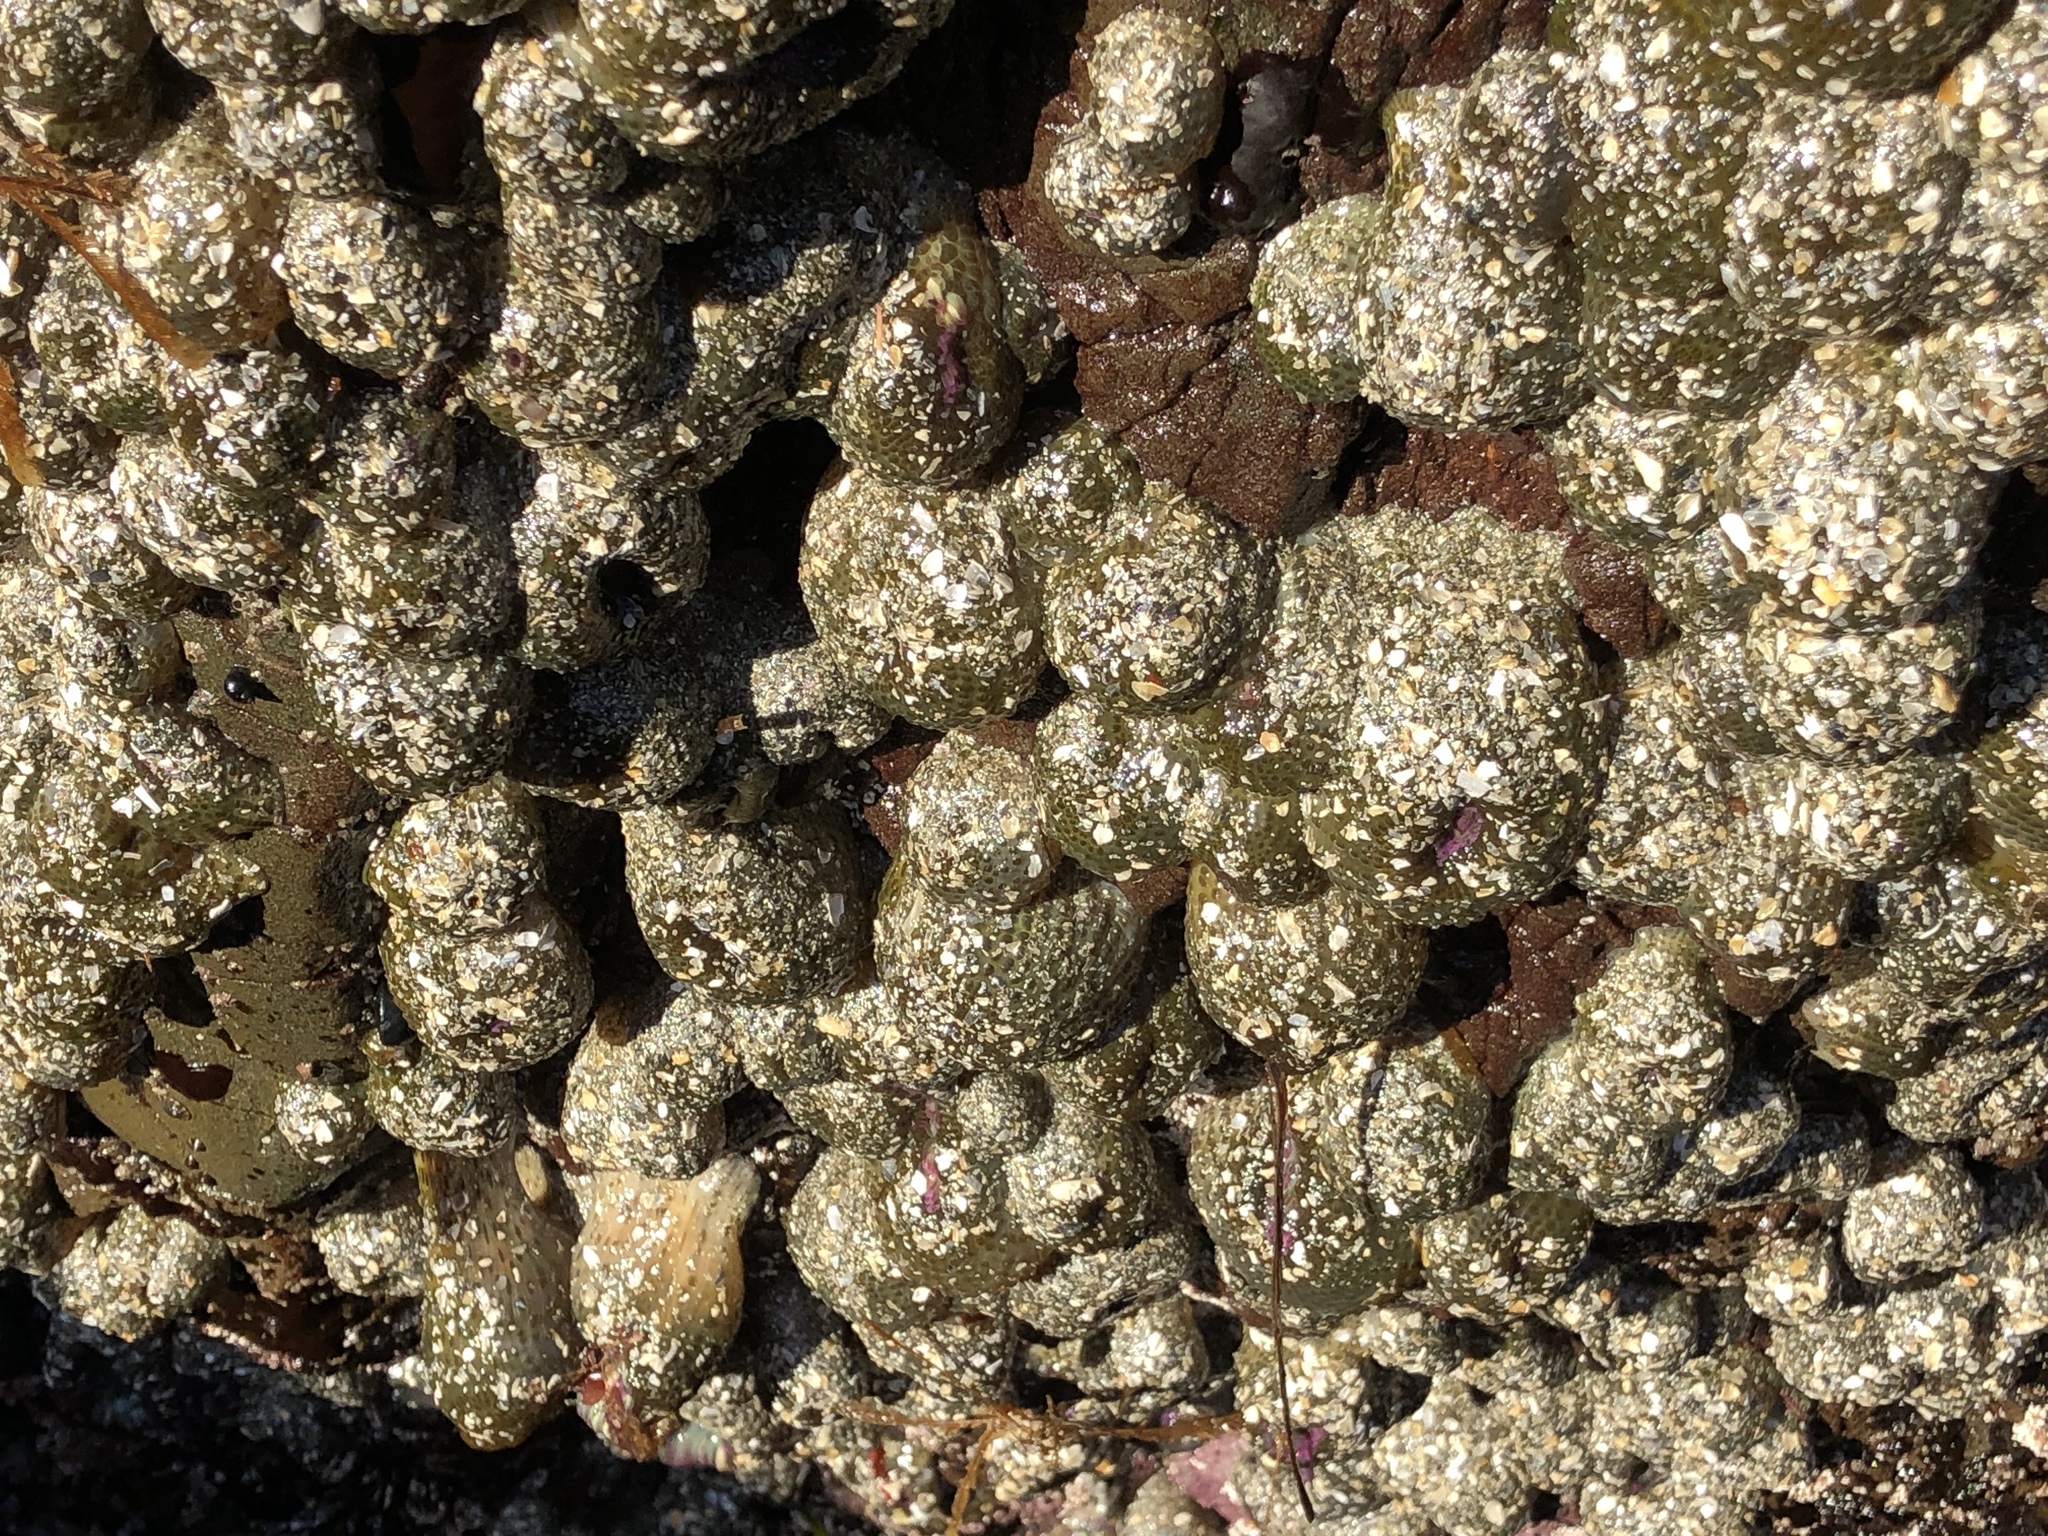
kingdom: Animalia
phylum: Cnidaria
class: Anthozoa
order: Actiniaria
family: Actiniidae
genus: Anthopleura
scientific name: Anthopleura elegantissima
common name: Clonal anemone
